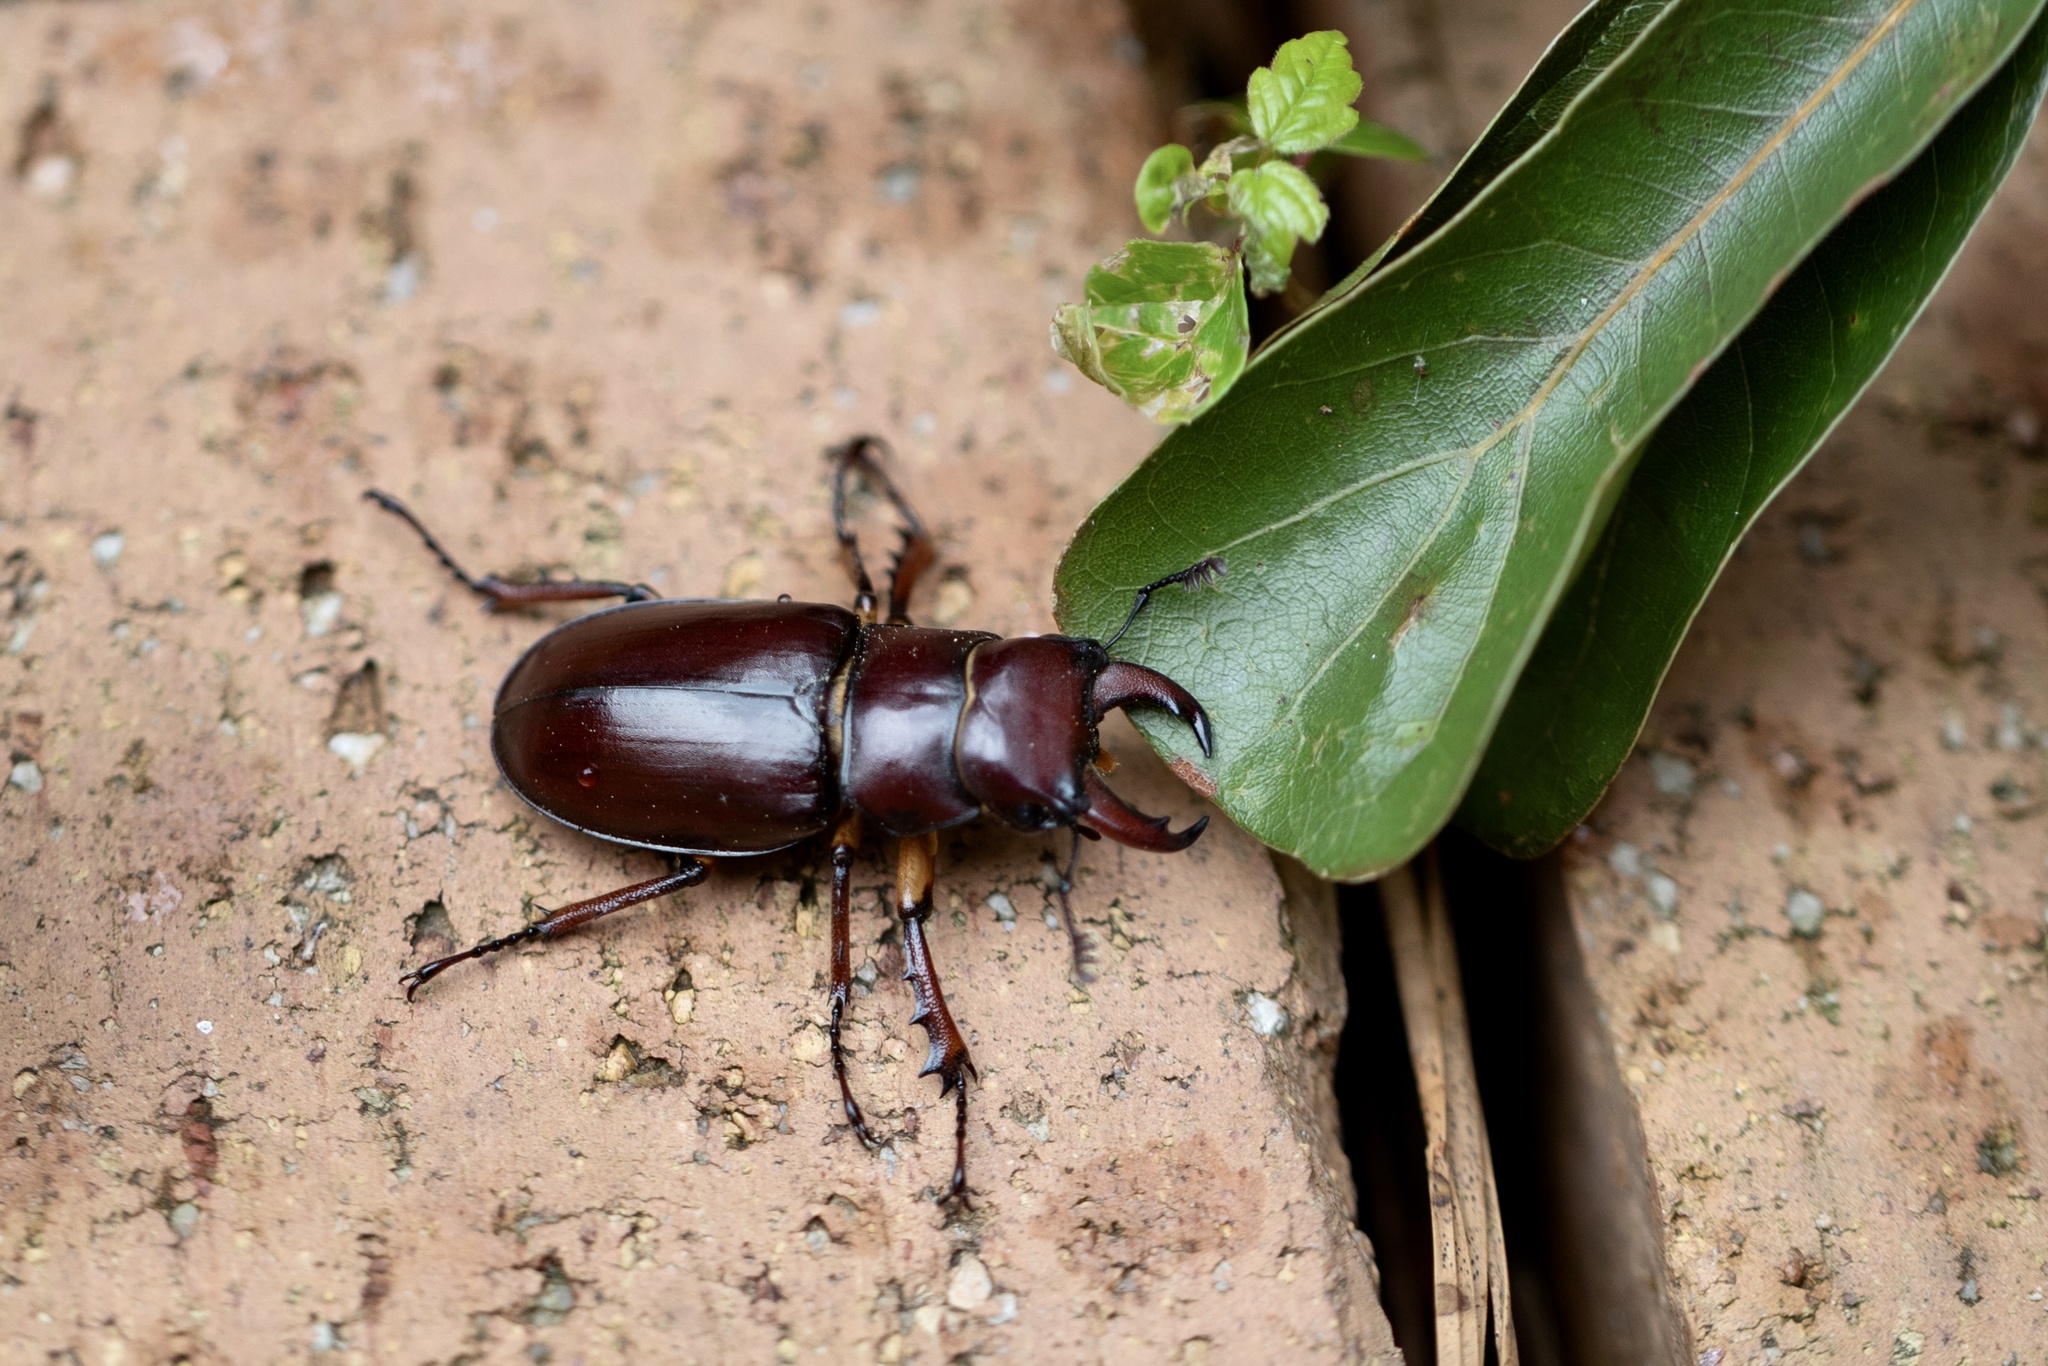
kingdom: Animalia
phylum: Arthropoda
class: Insecta
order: Coleoptera
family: Lucanidae
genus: Lucanus
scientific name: Lucanus capreolus
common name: Stag beetle
